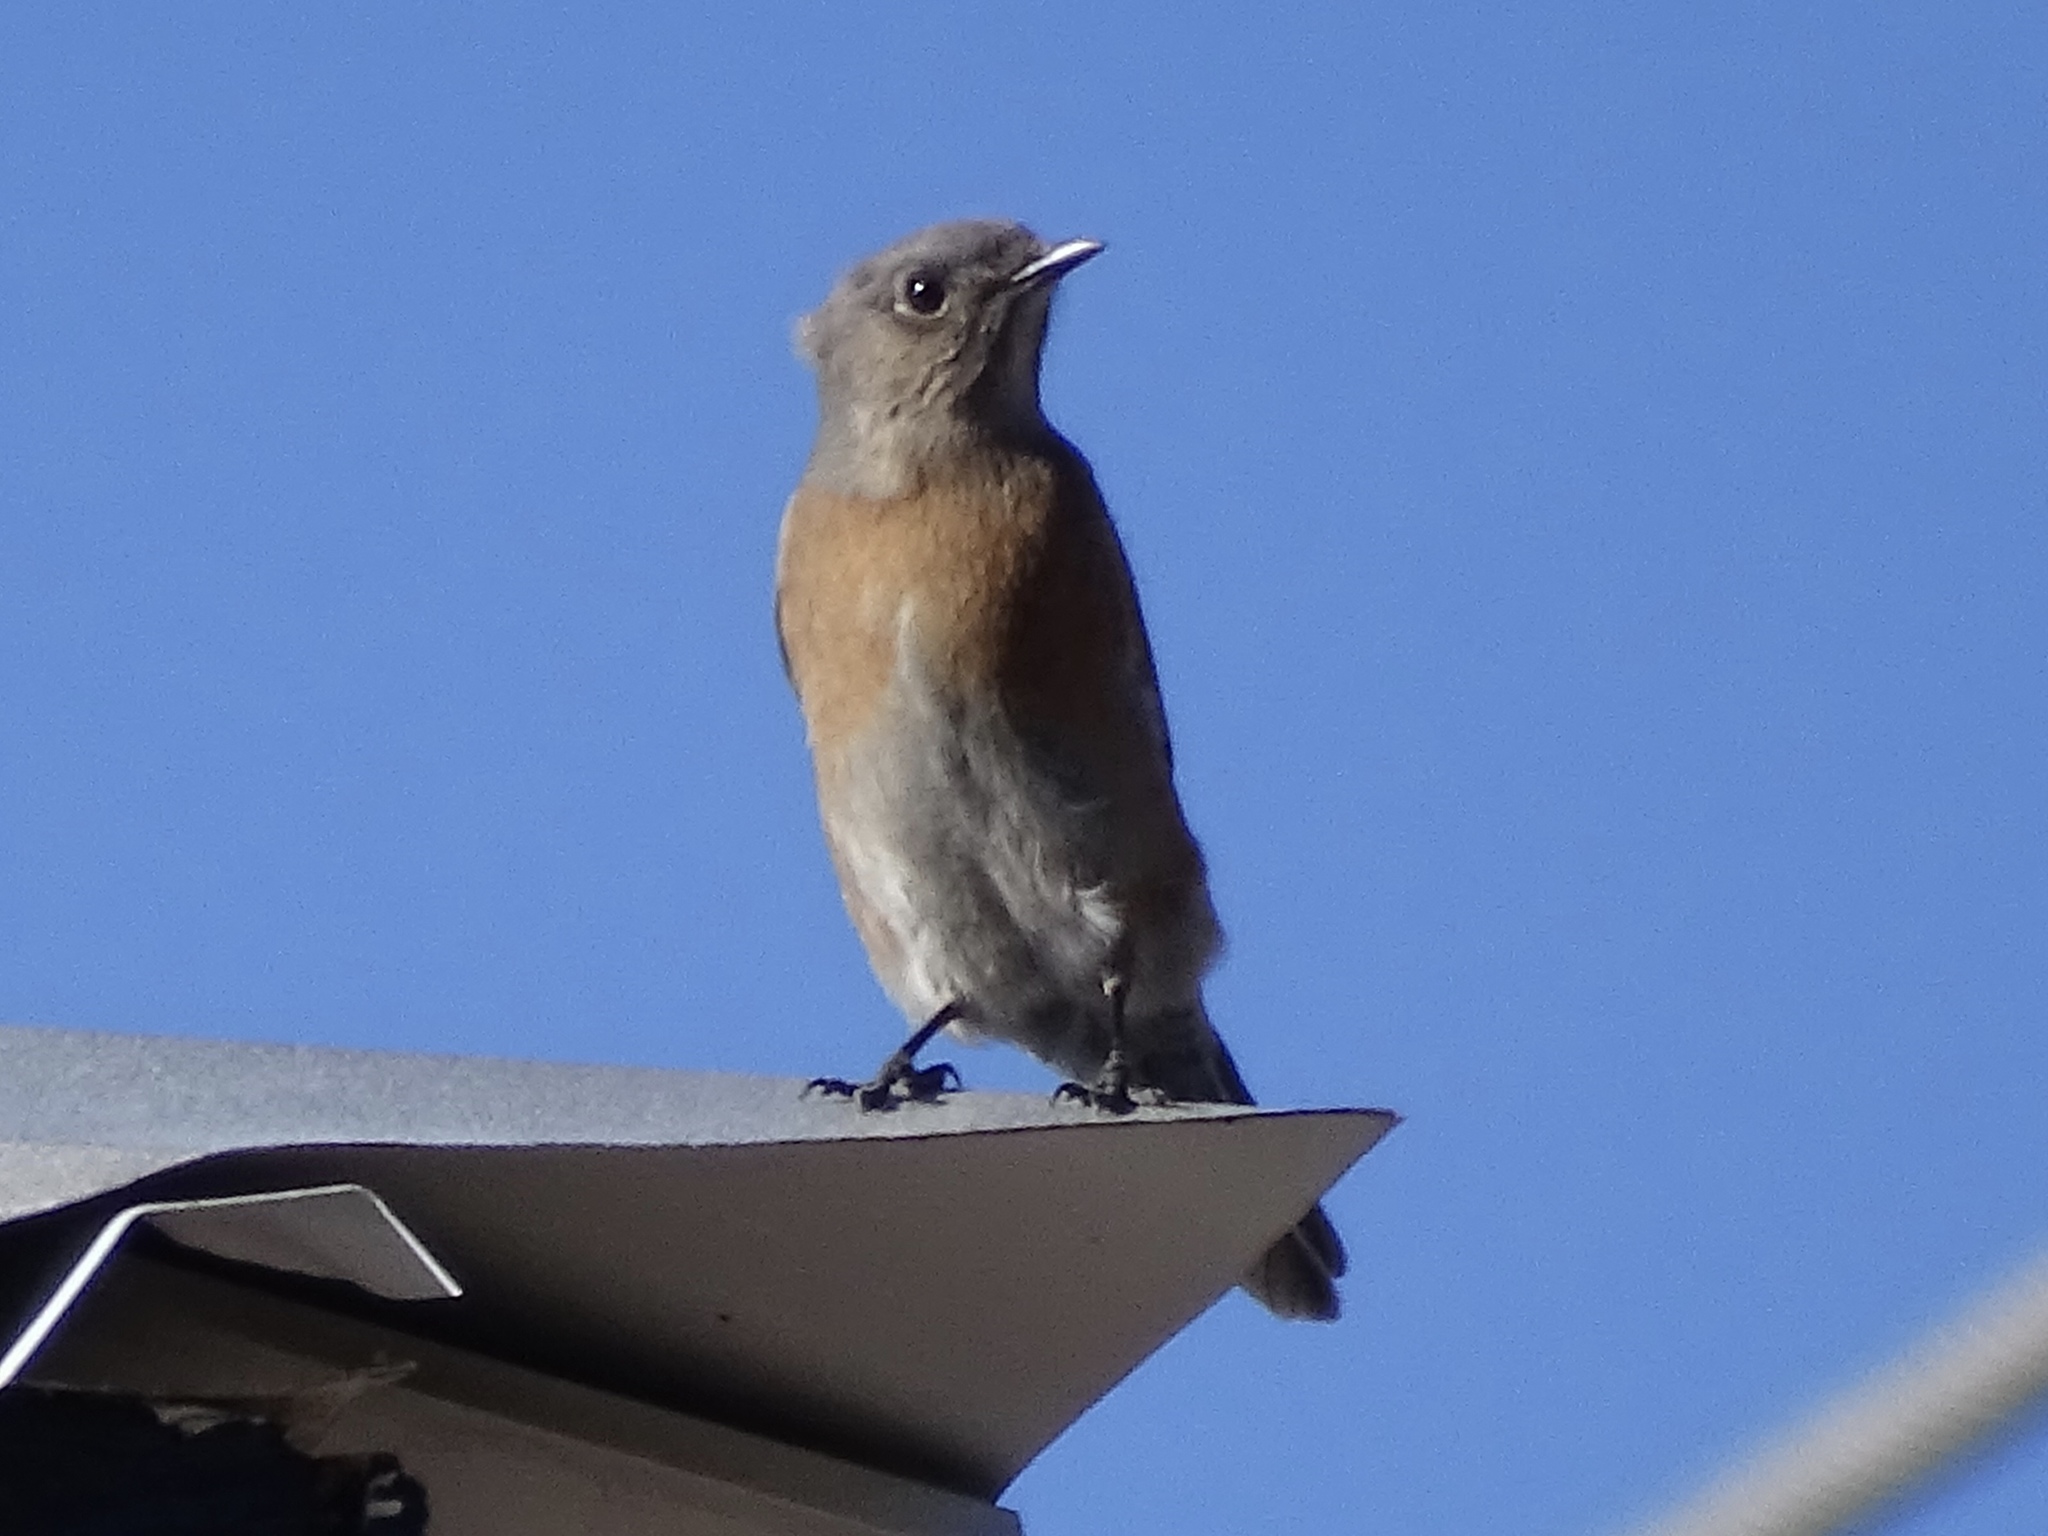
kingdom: Animalia
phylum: Chordata
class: Aves
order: Passeriformes
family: Turdidae
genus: Sialia
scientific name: Sialia mexicana
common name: Western bluebird
